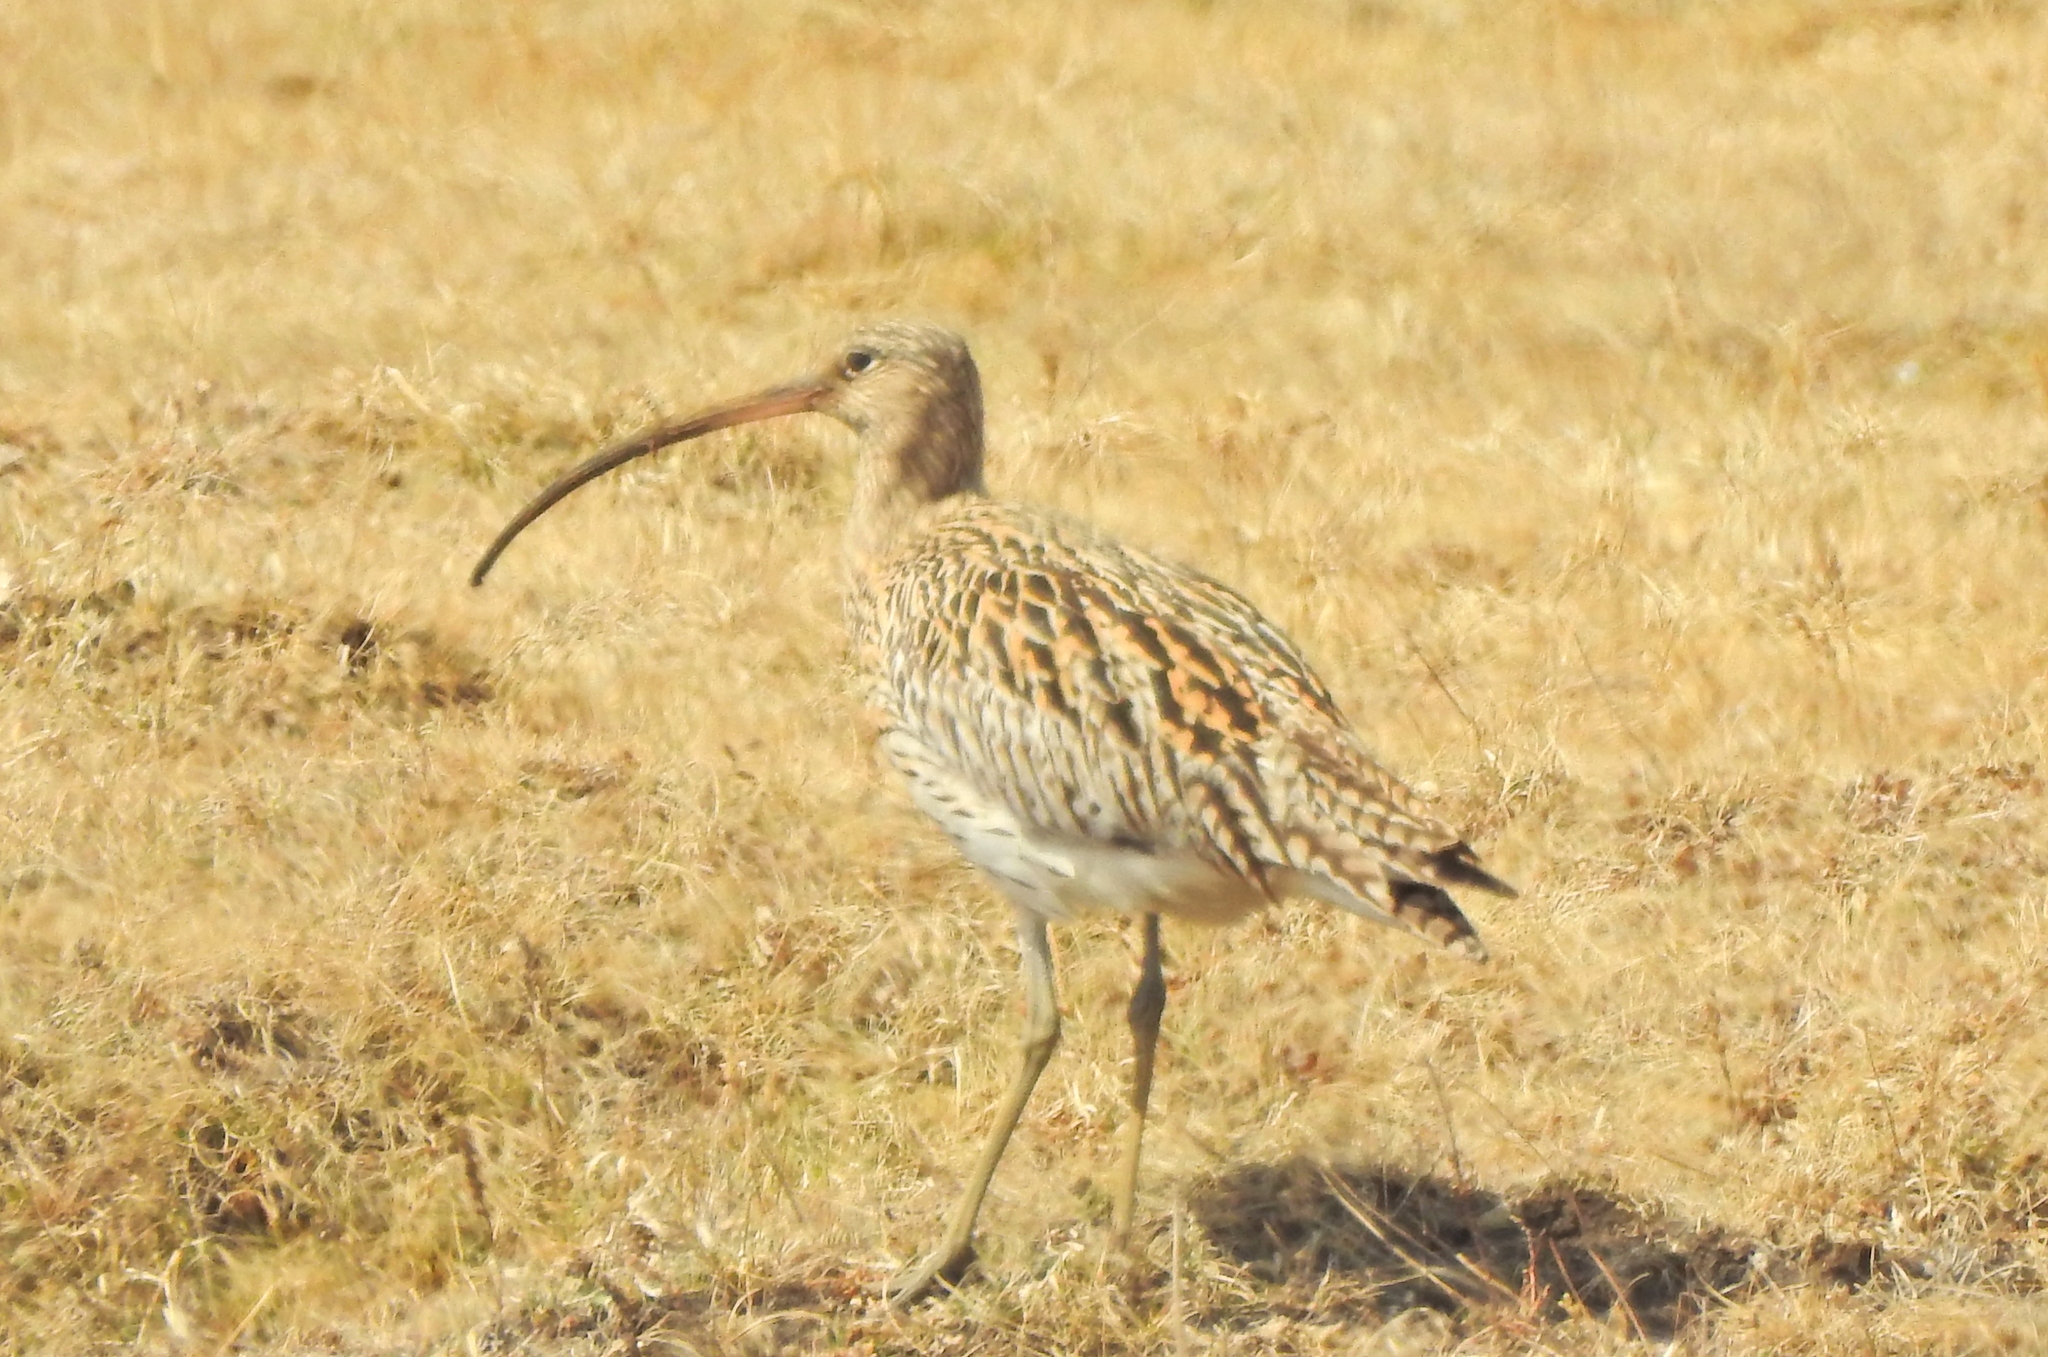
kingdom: Animalia
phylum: Chordata
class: Aves
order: Charadriiformes
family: Scolopacidae
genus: Numenius
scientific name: Numenius arquata
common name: Eurasian curlew
